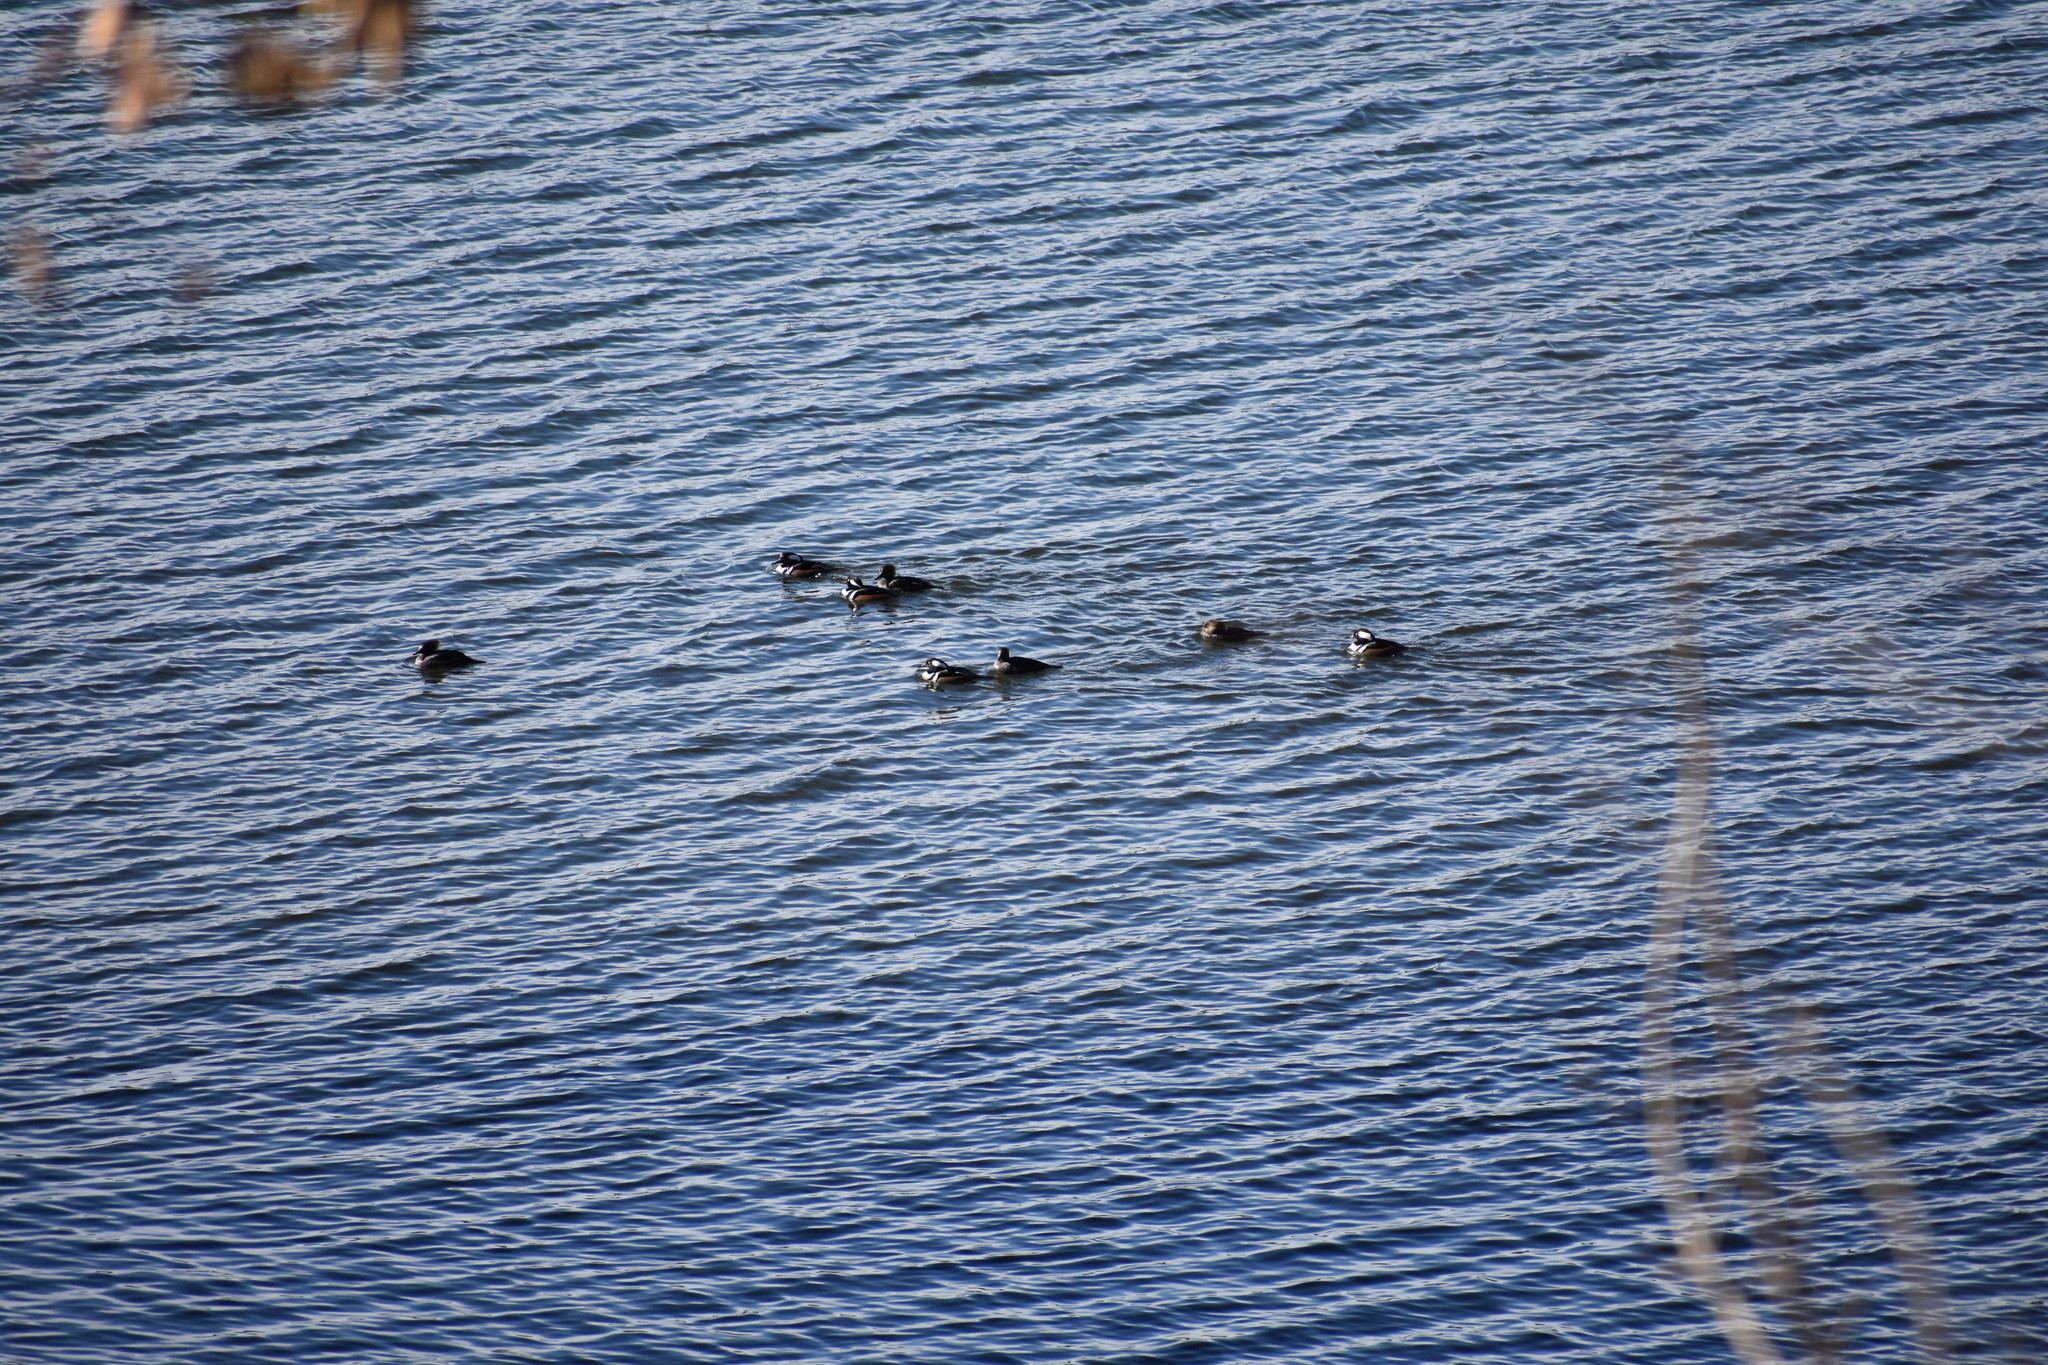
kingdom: Animalia
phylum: Chordata
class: Aves
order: Anseriformes
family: Anatidae
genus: Lophodytes
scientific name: Lophodytes cucullatus
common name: Hooded merganser
